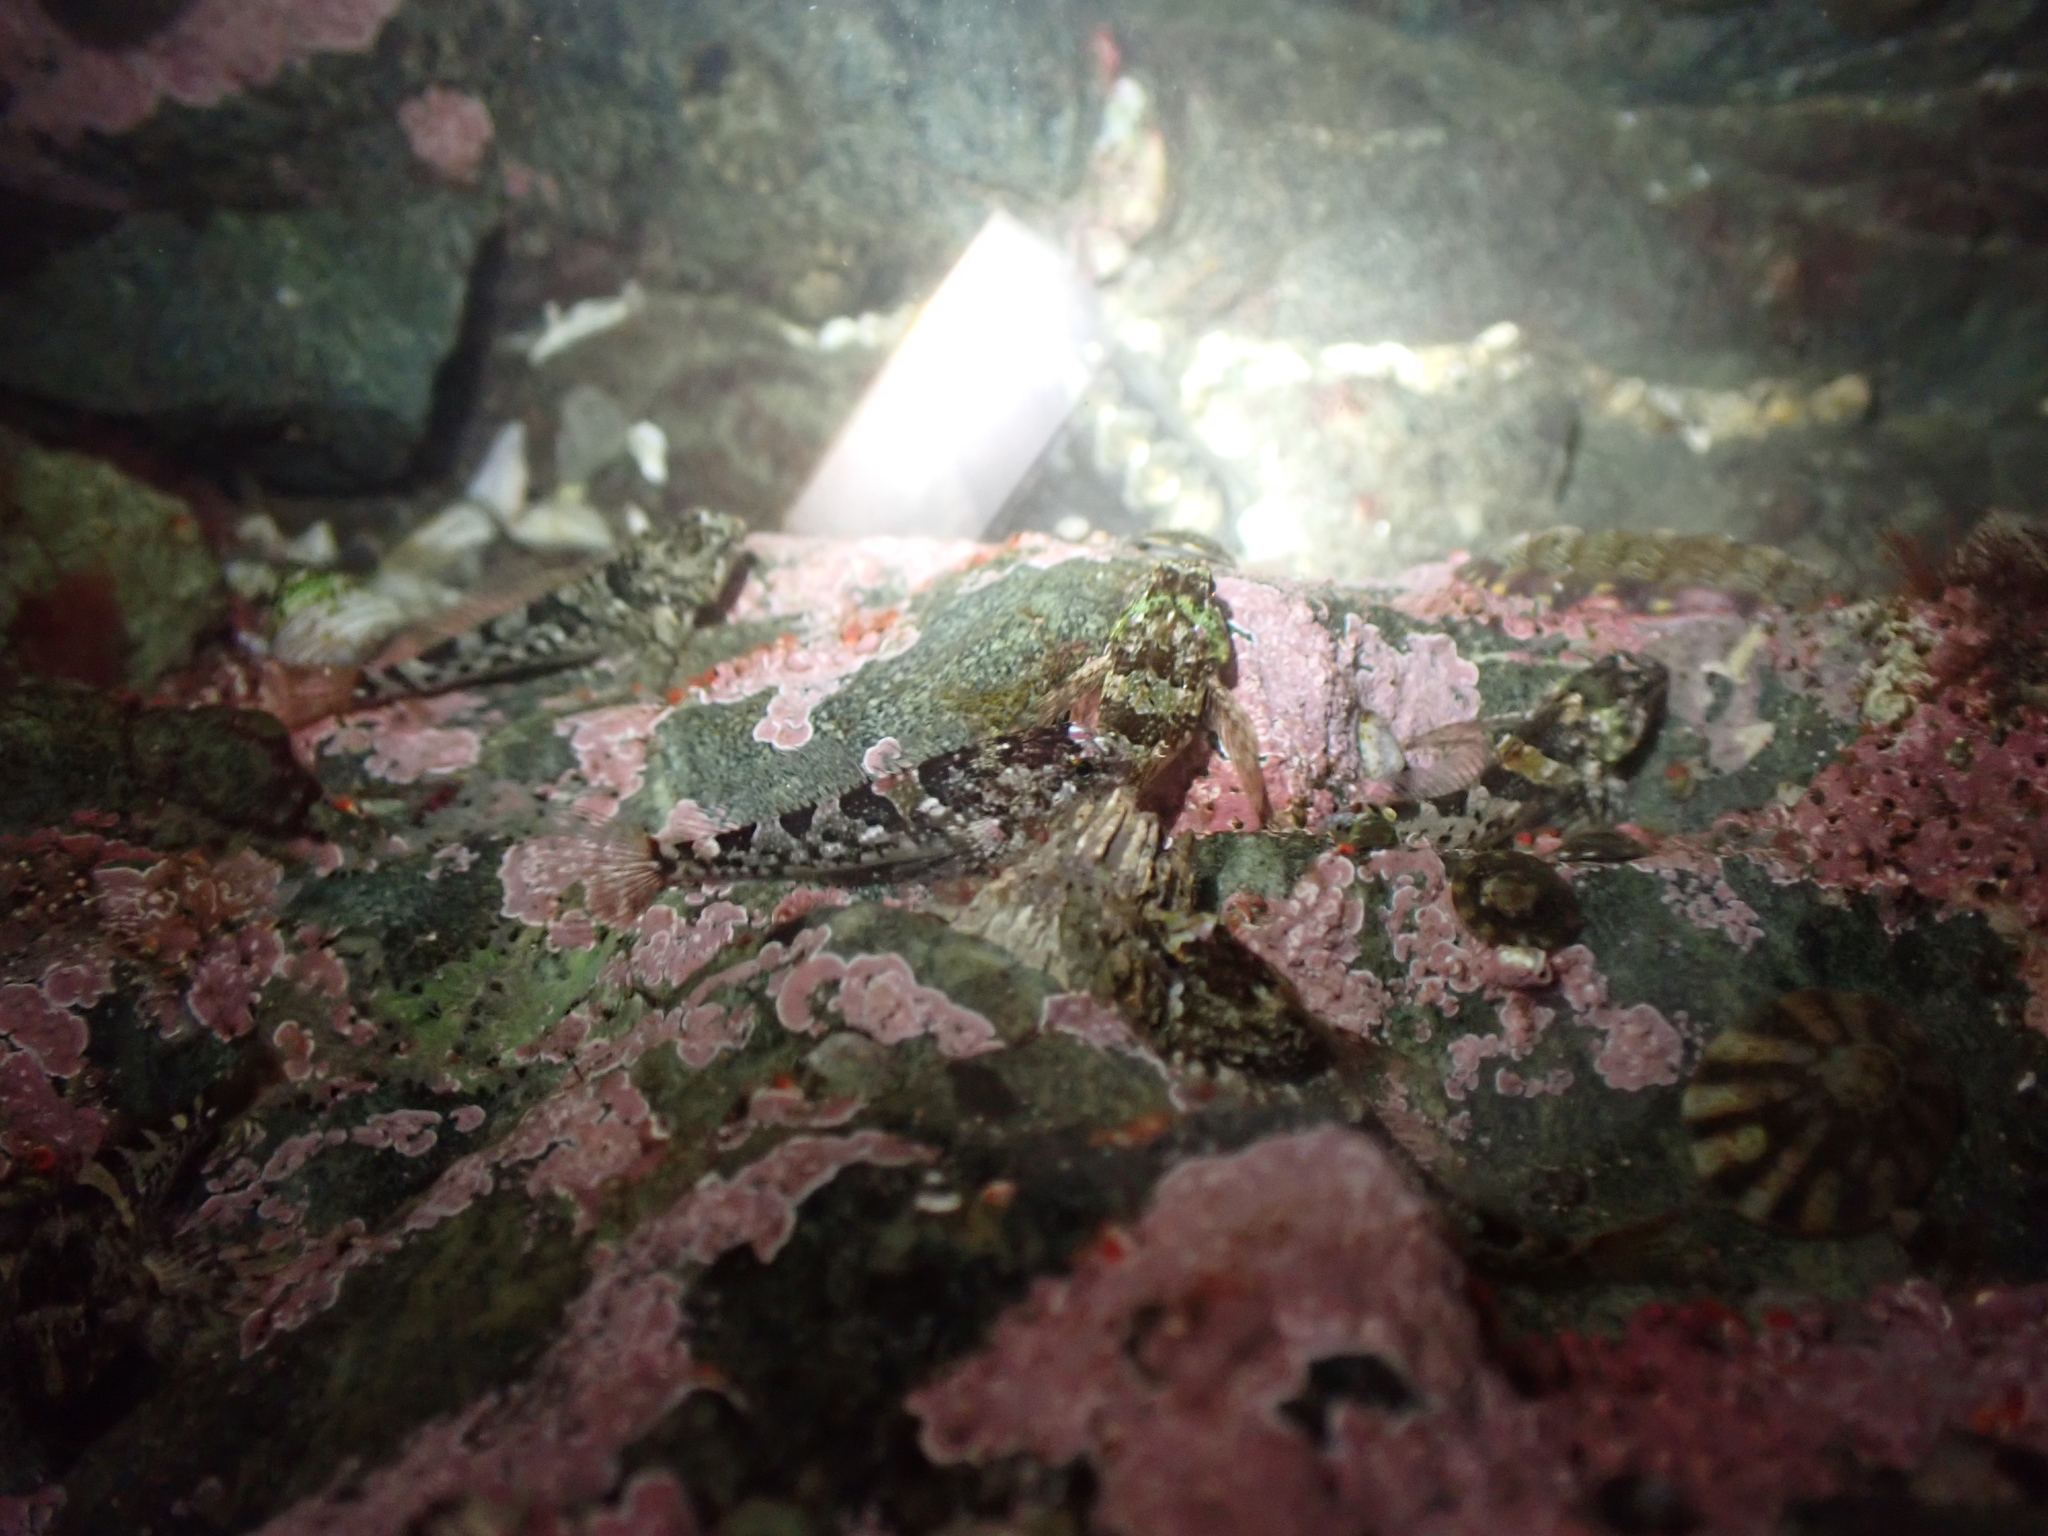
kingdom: Animalia
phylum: Chordata
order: Scorpaeniformes
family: Cottidae
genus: Oligocottus
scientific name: Oligocottus maculosus
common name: Tidepool sculpin
